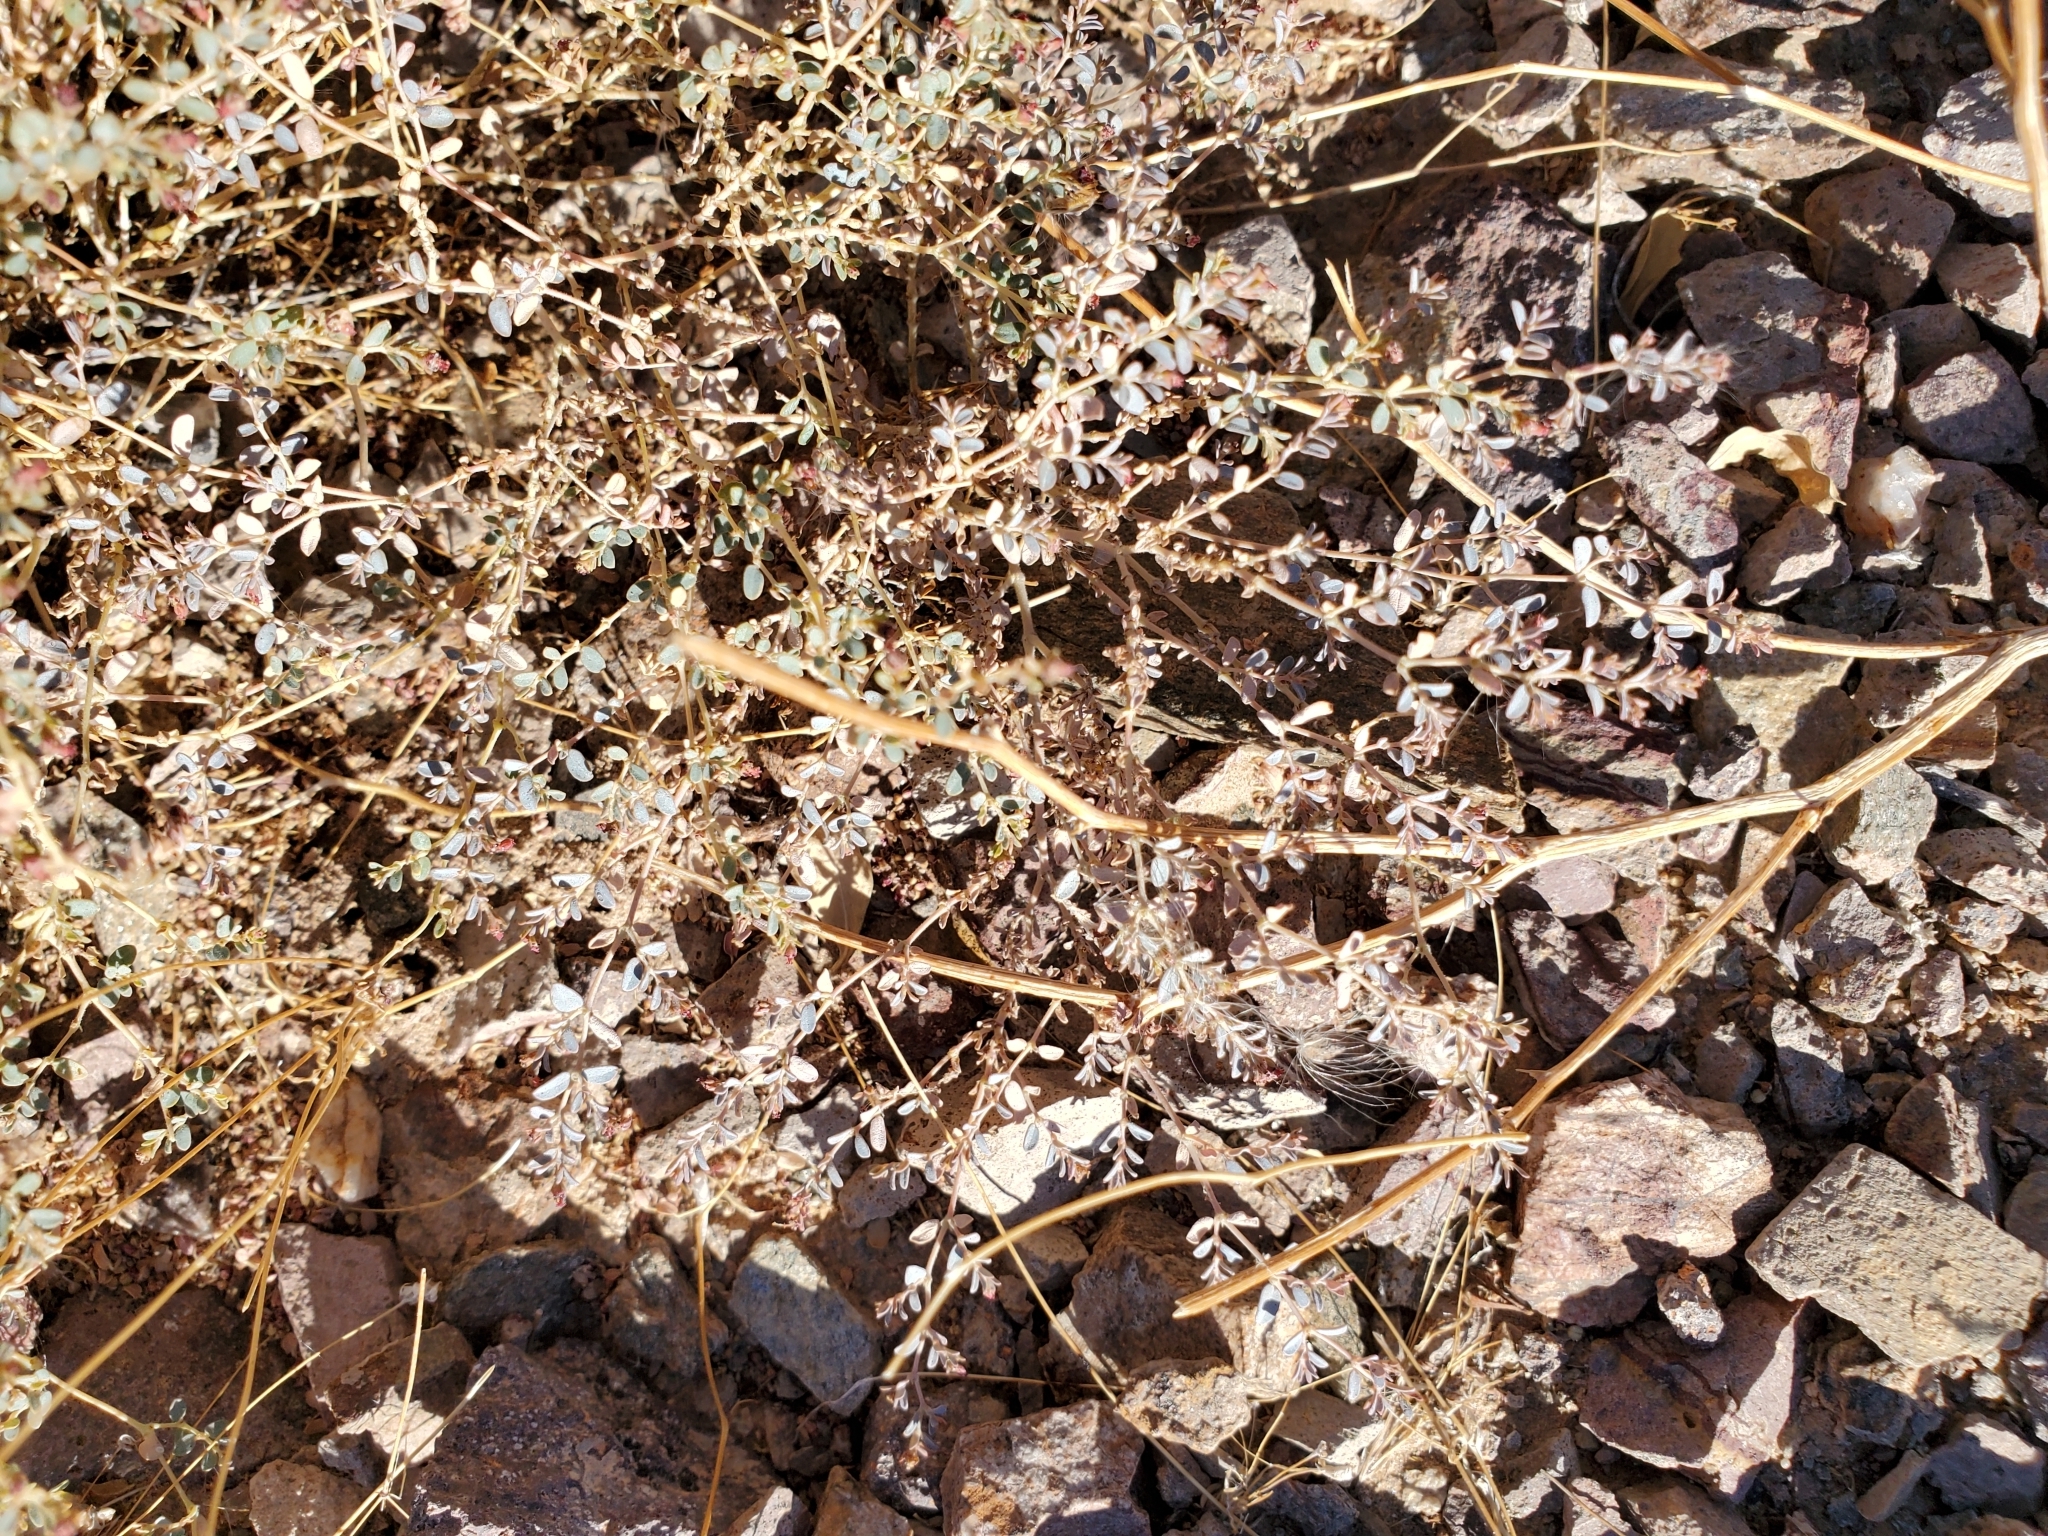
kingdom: Plantae
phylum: Tracheophyta
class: Magnoliopsida
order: Malpighiales
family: Euphorbiaceae
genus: Euphorbia
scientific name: Euphorbia polycarpa
